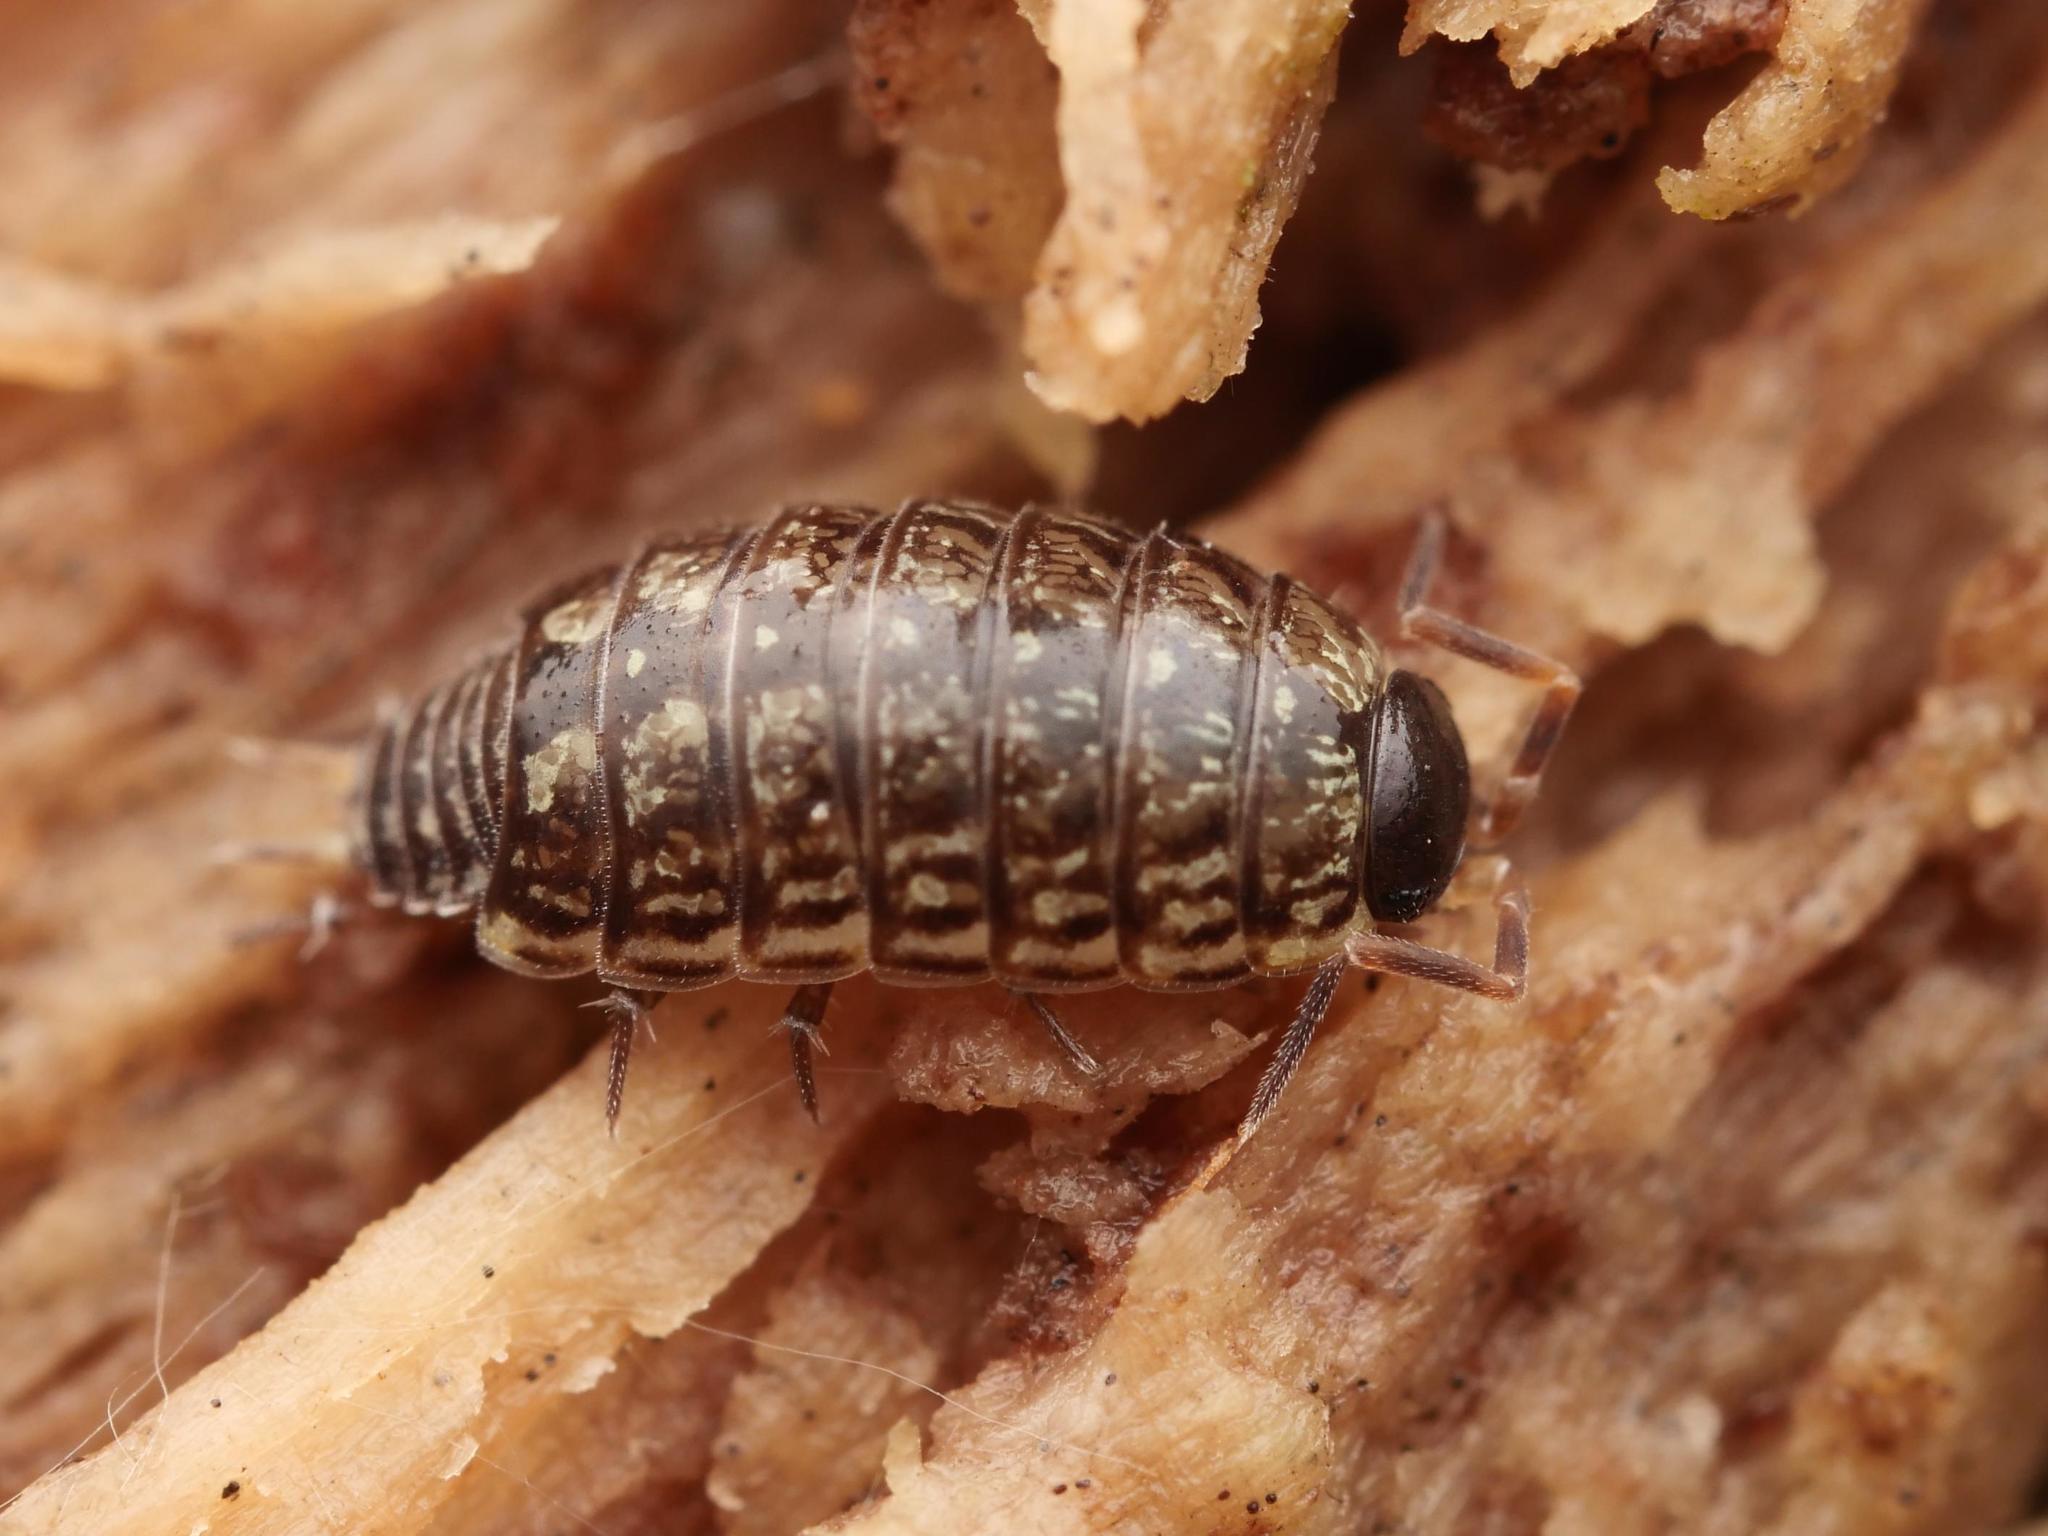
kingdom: Animalia
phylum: Arthropoda
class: Malacostraca
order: Isopoda
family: Philosciidae
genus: Philoscia
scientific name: Philoscia muscorum
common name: Common striped woodlouse
